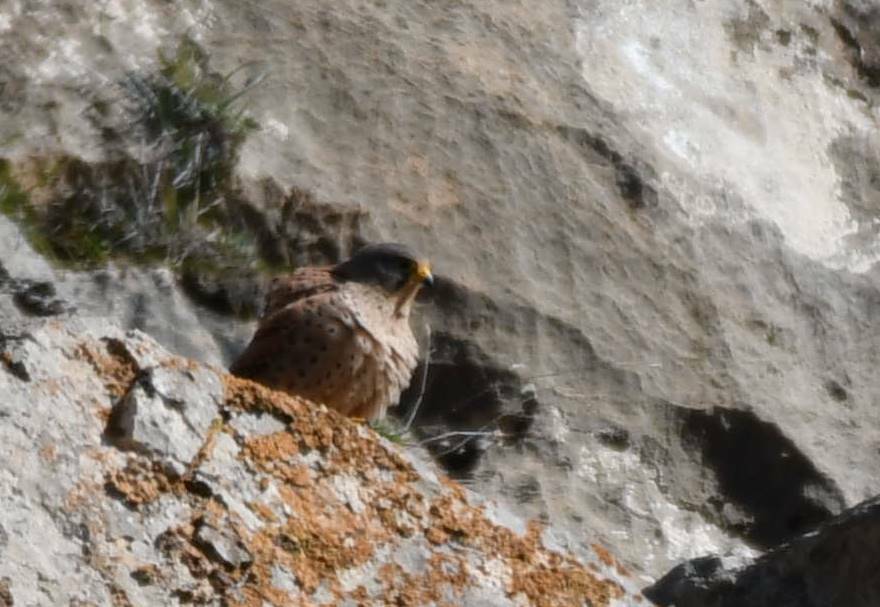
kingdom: Animalia
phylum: Chordata
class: Aves
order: Falconiformes
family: Falconidae
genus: Falco
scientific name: Falco tinnunculus
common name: Common kestrel
